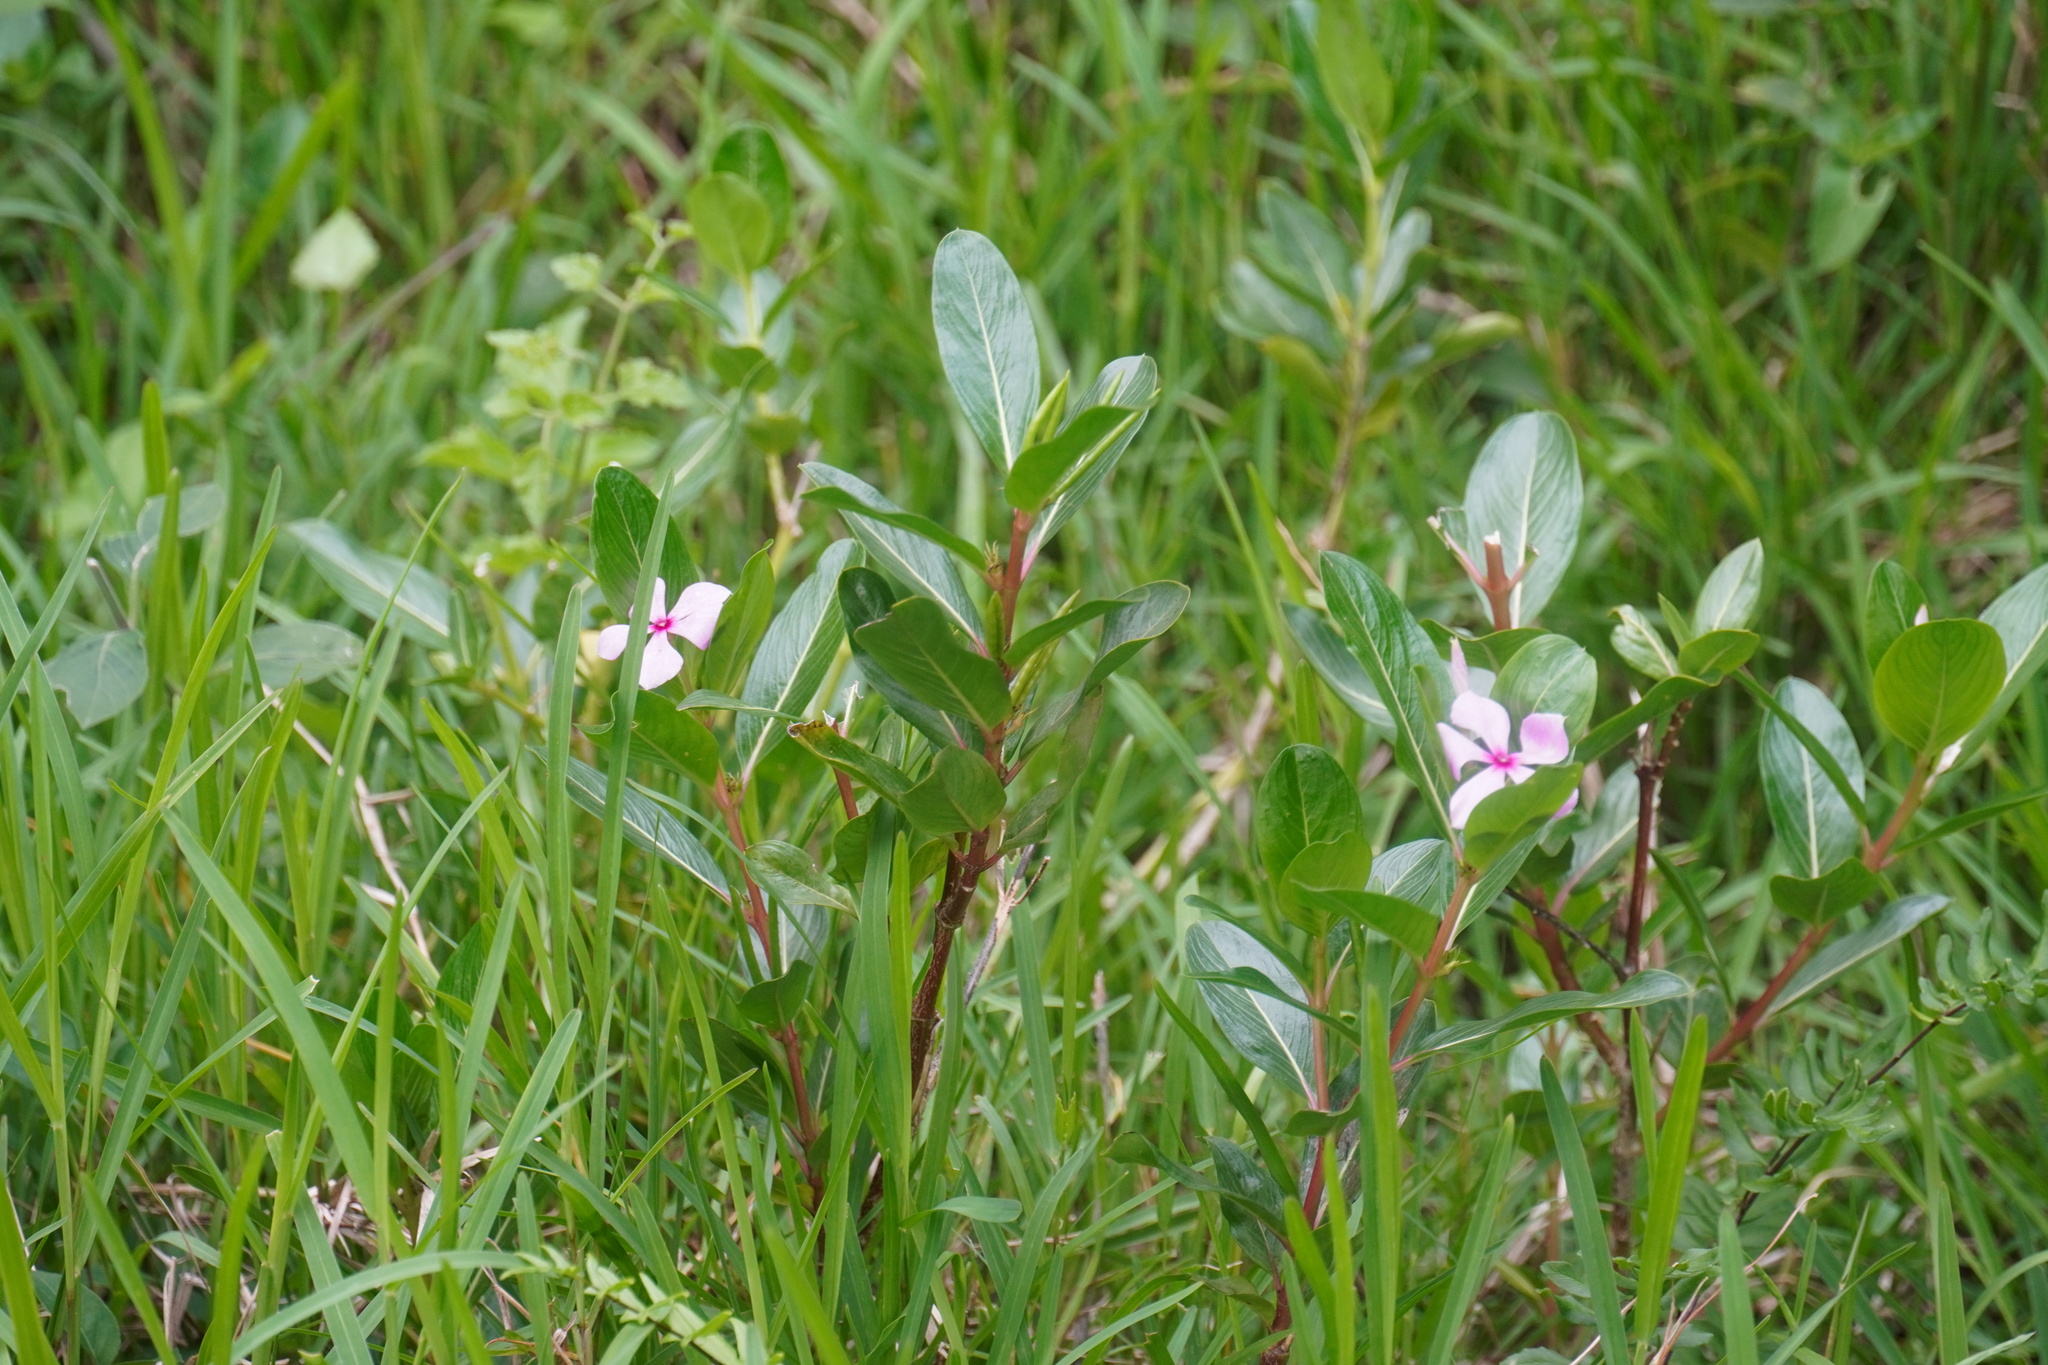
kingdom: Plantae
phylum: Tracheophyta
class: Magnoliopsida
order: Gentianales
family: Apocynaceae
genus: Catharanthus
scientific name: Catharanthus roseus
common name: Madagascar periwinkle
